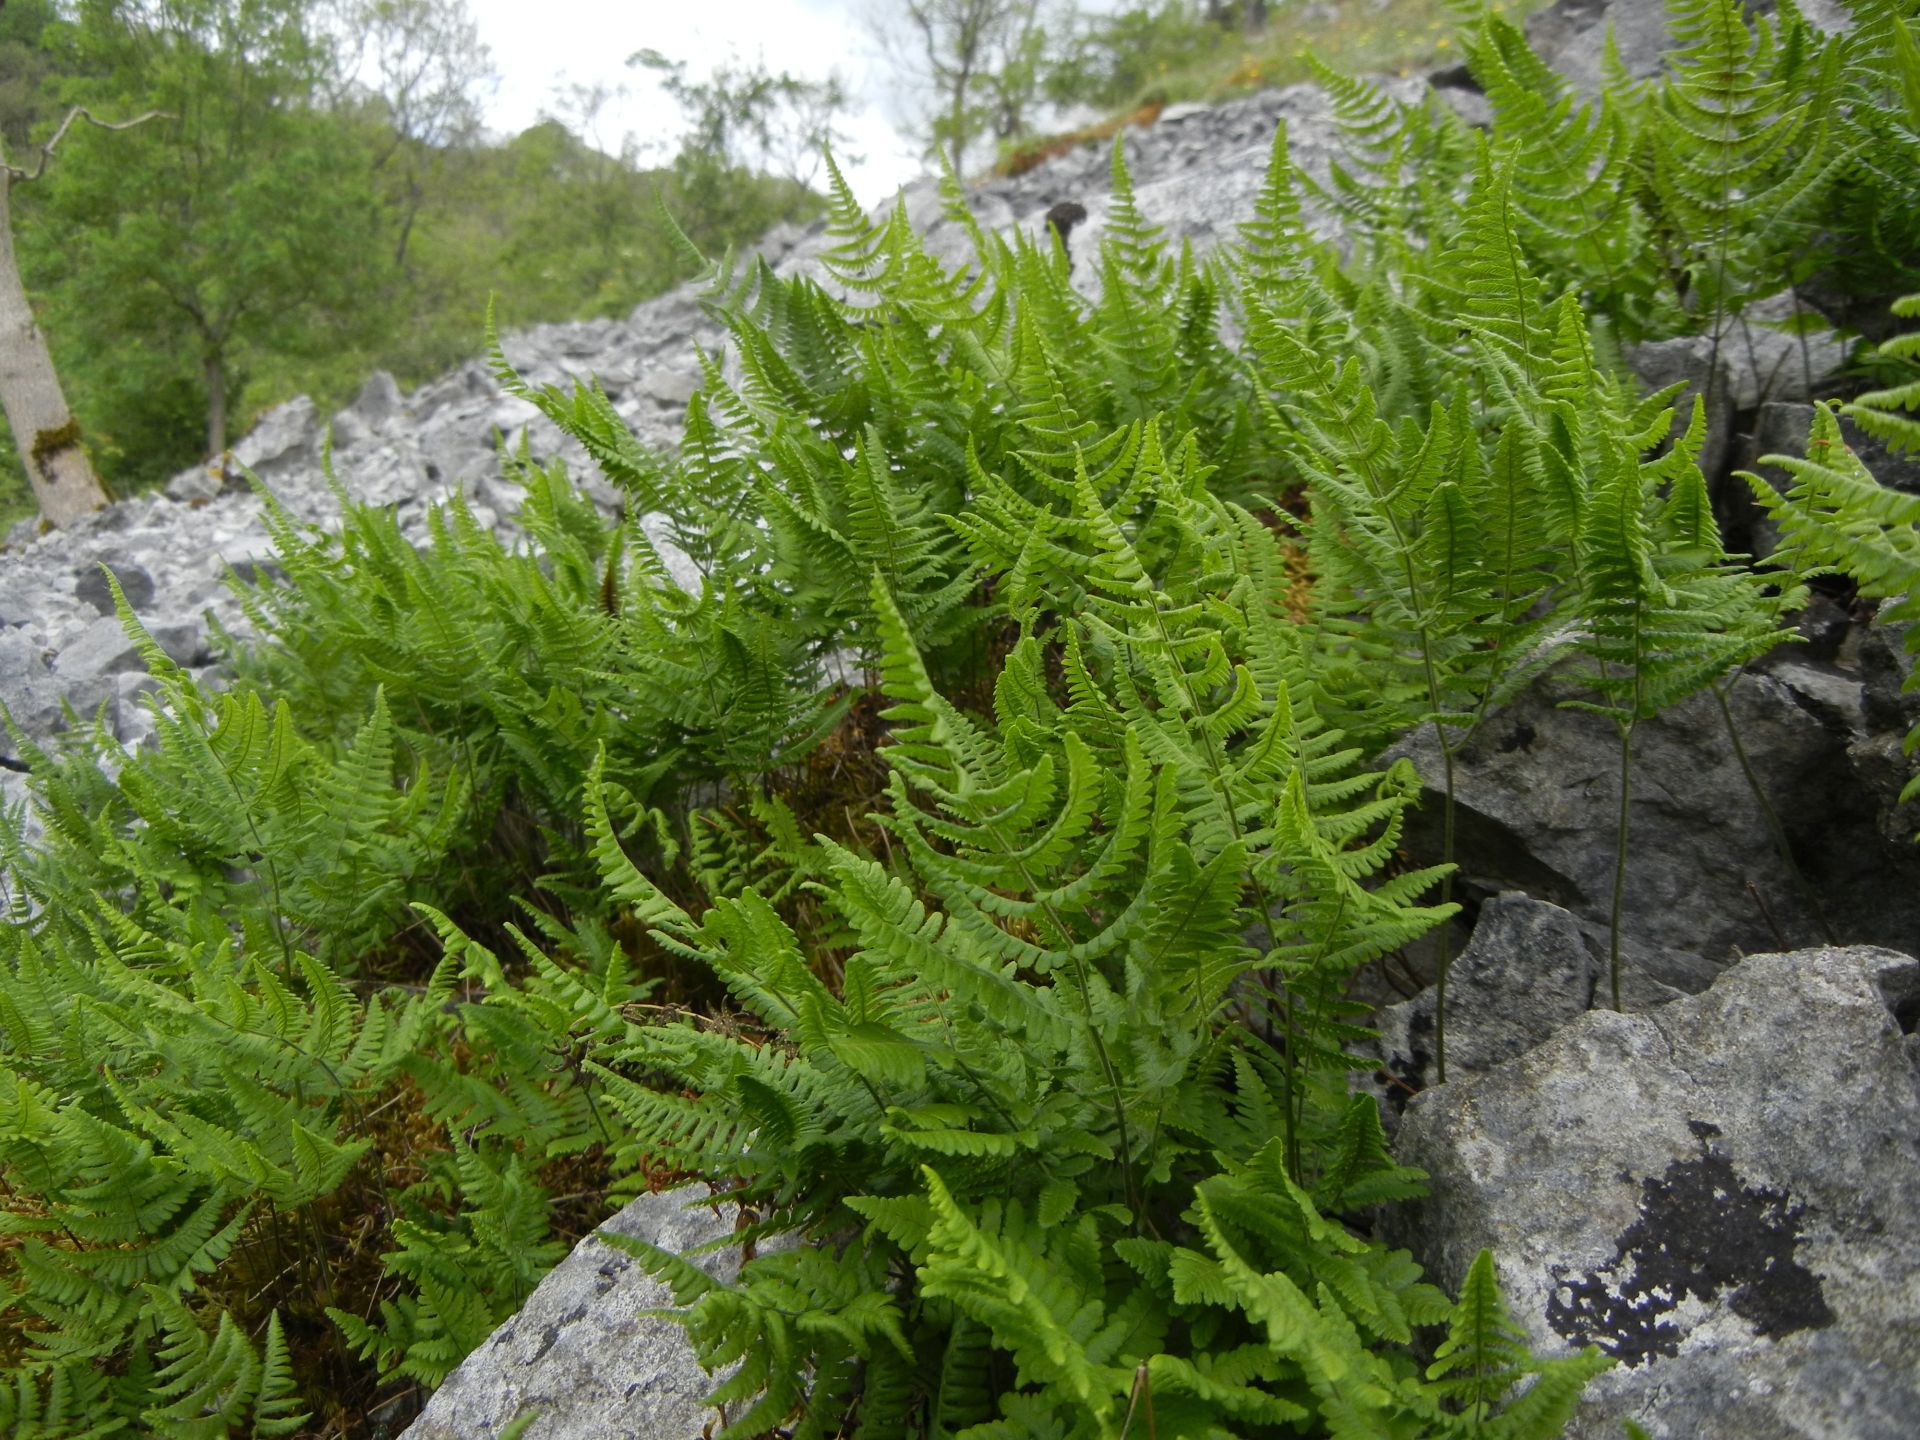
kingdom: Plantae
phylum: Tracheophyta
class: Polypodiopsida
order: Polypodiales
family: Cystopteridaceae
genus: Gymnocarpium
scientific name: Gymnocarpium robertianum
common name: Limestone fern
